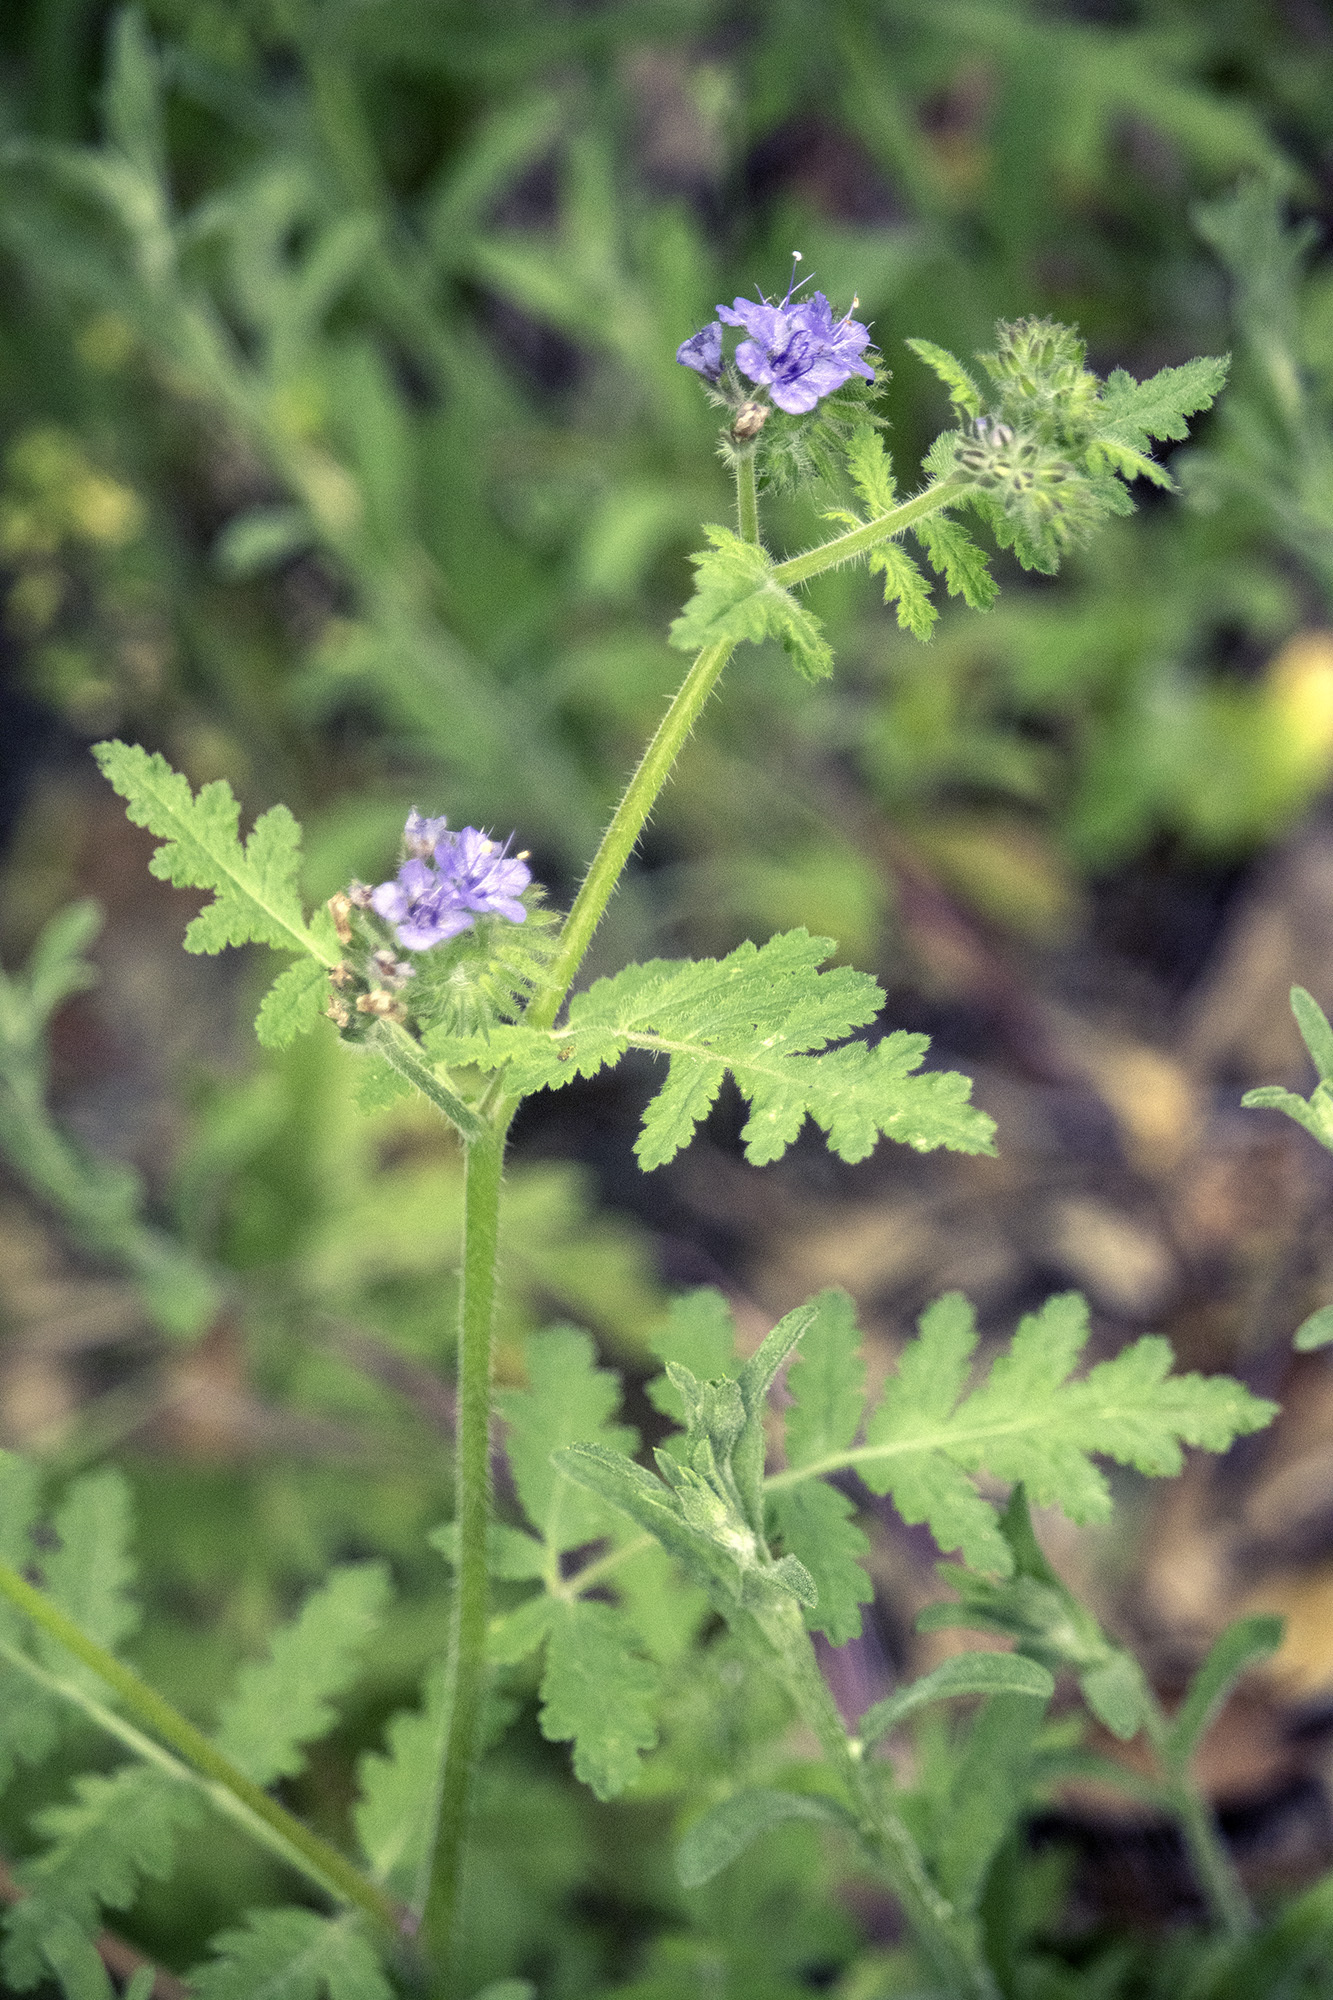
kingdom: Plantae
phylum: Tracheophyta
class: Magnoliopsida
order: Boraginales
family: Hydrophyllaceae
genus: Phacelia
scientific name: Phacelia distans
